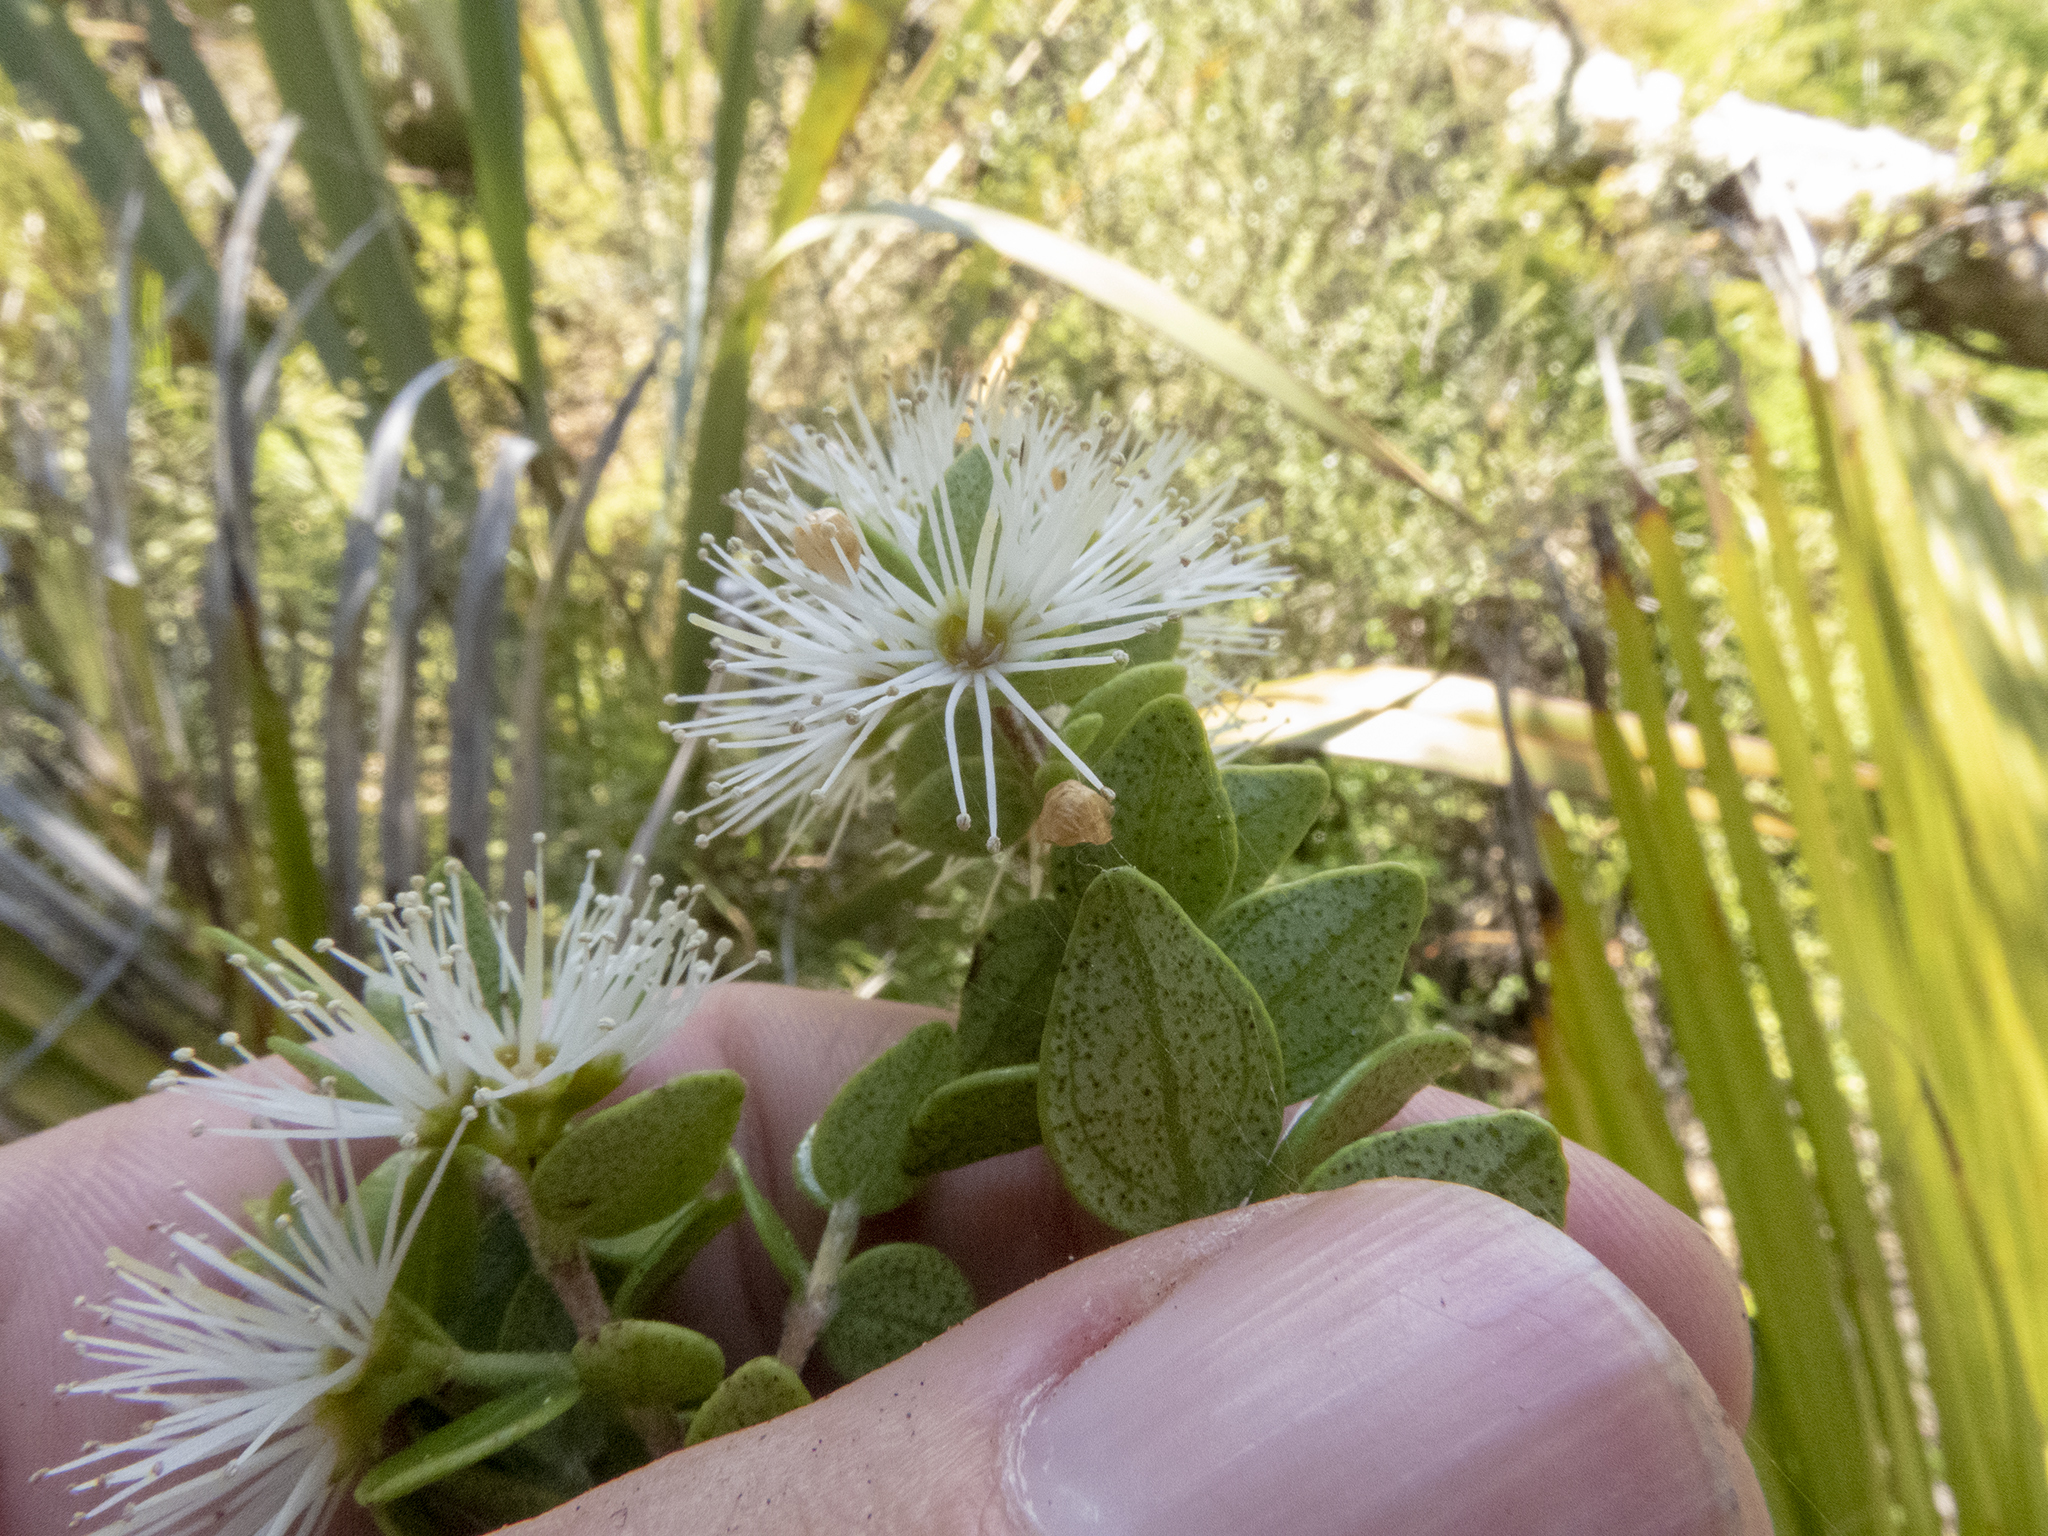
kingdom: Plantae
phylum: Tracheophyta
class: Magnoliopsida
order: Myrtales
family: Myrtaceae
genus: Metrosideros
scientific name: Metrosideros perforata
